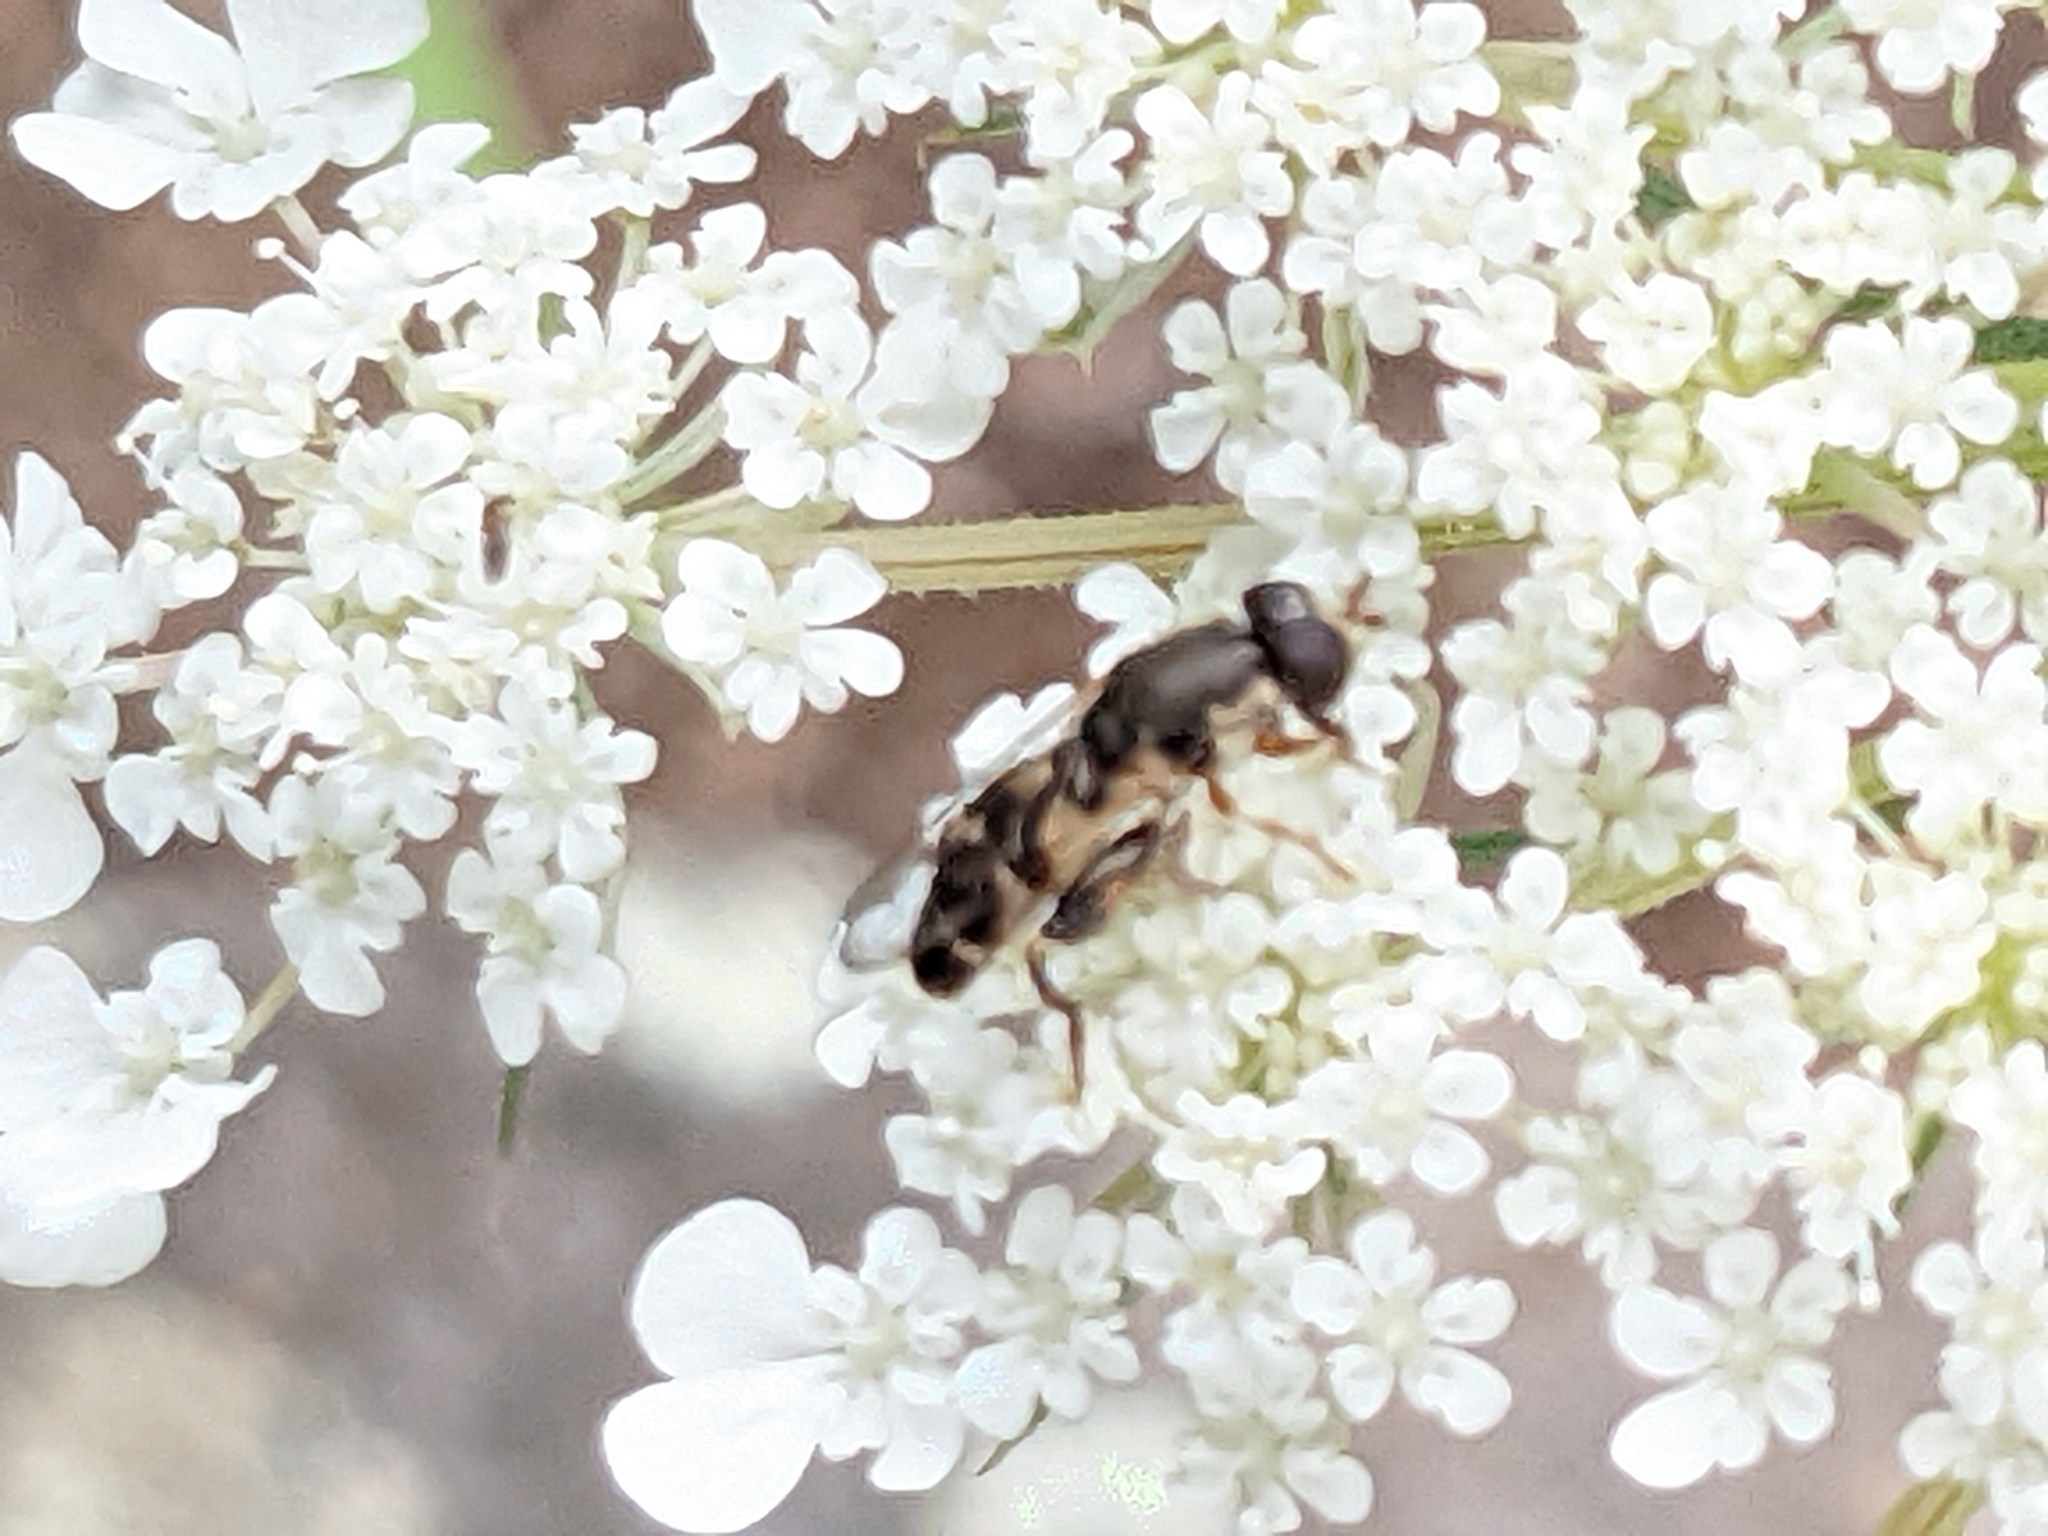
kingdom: Animalia
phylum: Arthropoda
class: Insecta
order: Diptera
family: Syrphidae
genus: Syritta
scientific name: Syritta pipiens
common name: Hover fly
